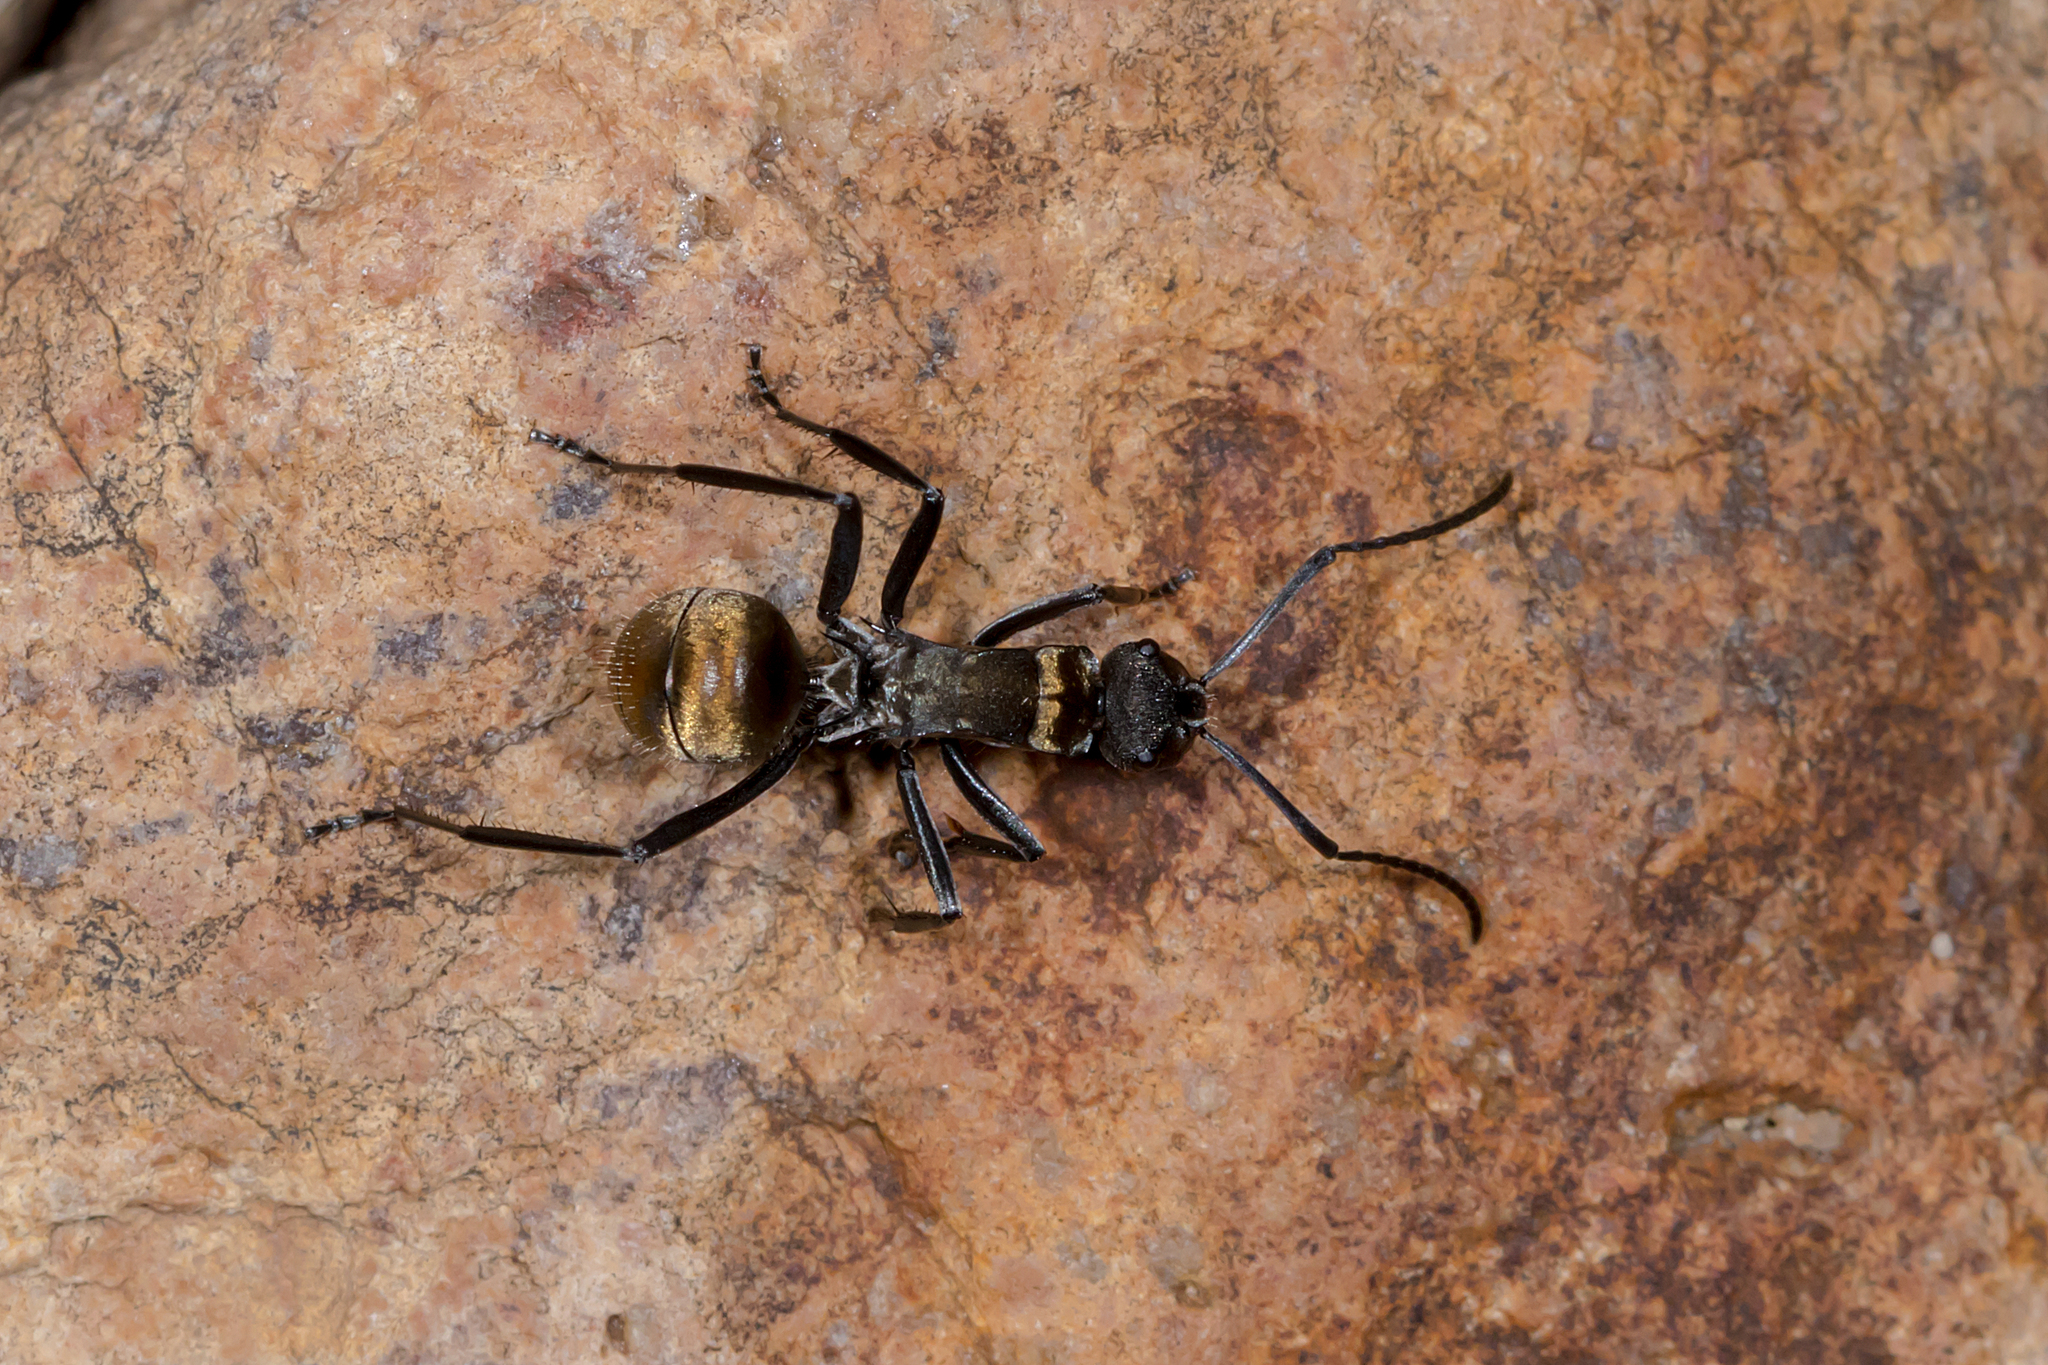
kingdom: Animalia
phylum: Arthropoda
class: Insecta
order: Hymenoptera
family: Formicidae
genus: Polyrhachis
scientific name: Polyrhachis ammon
